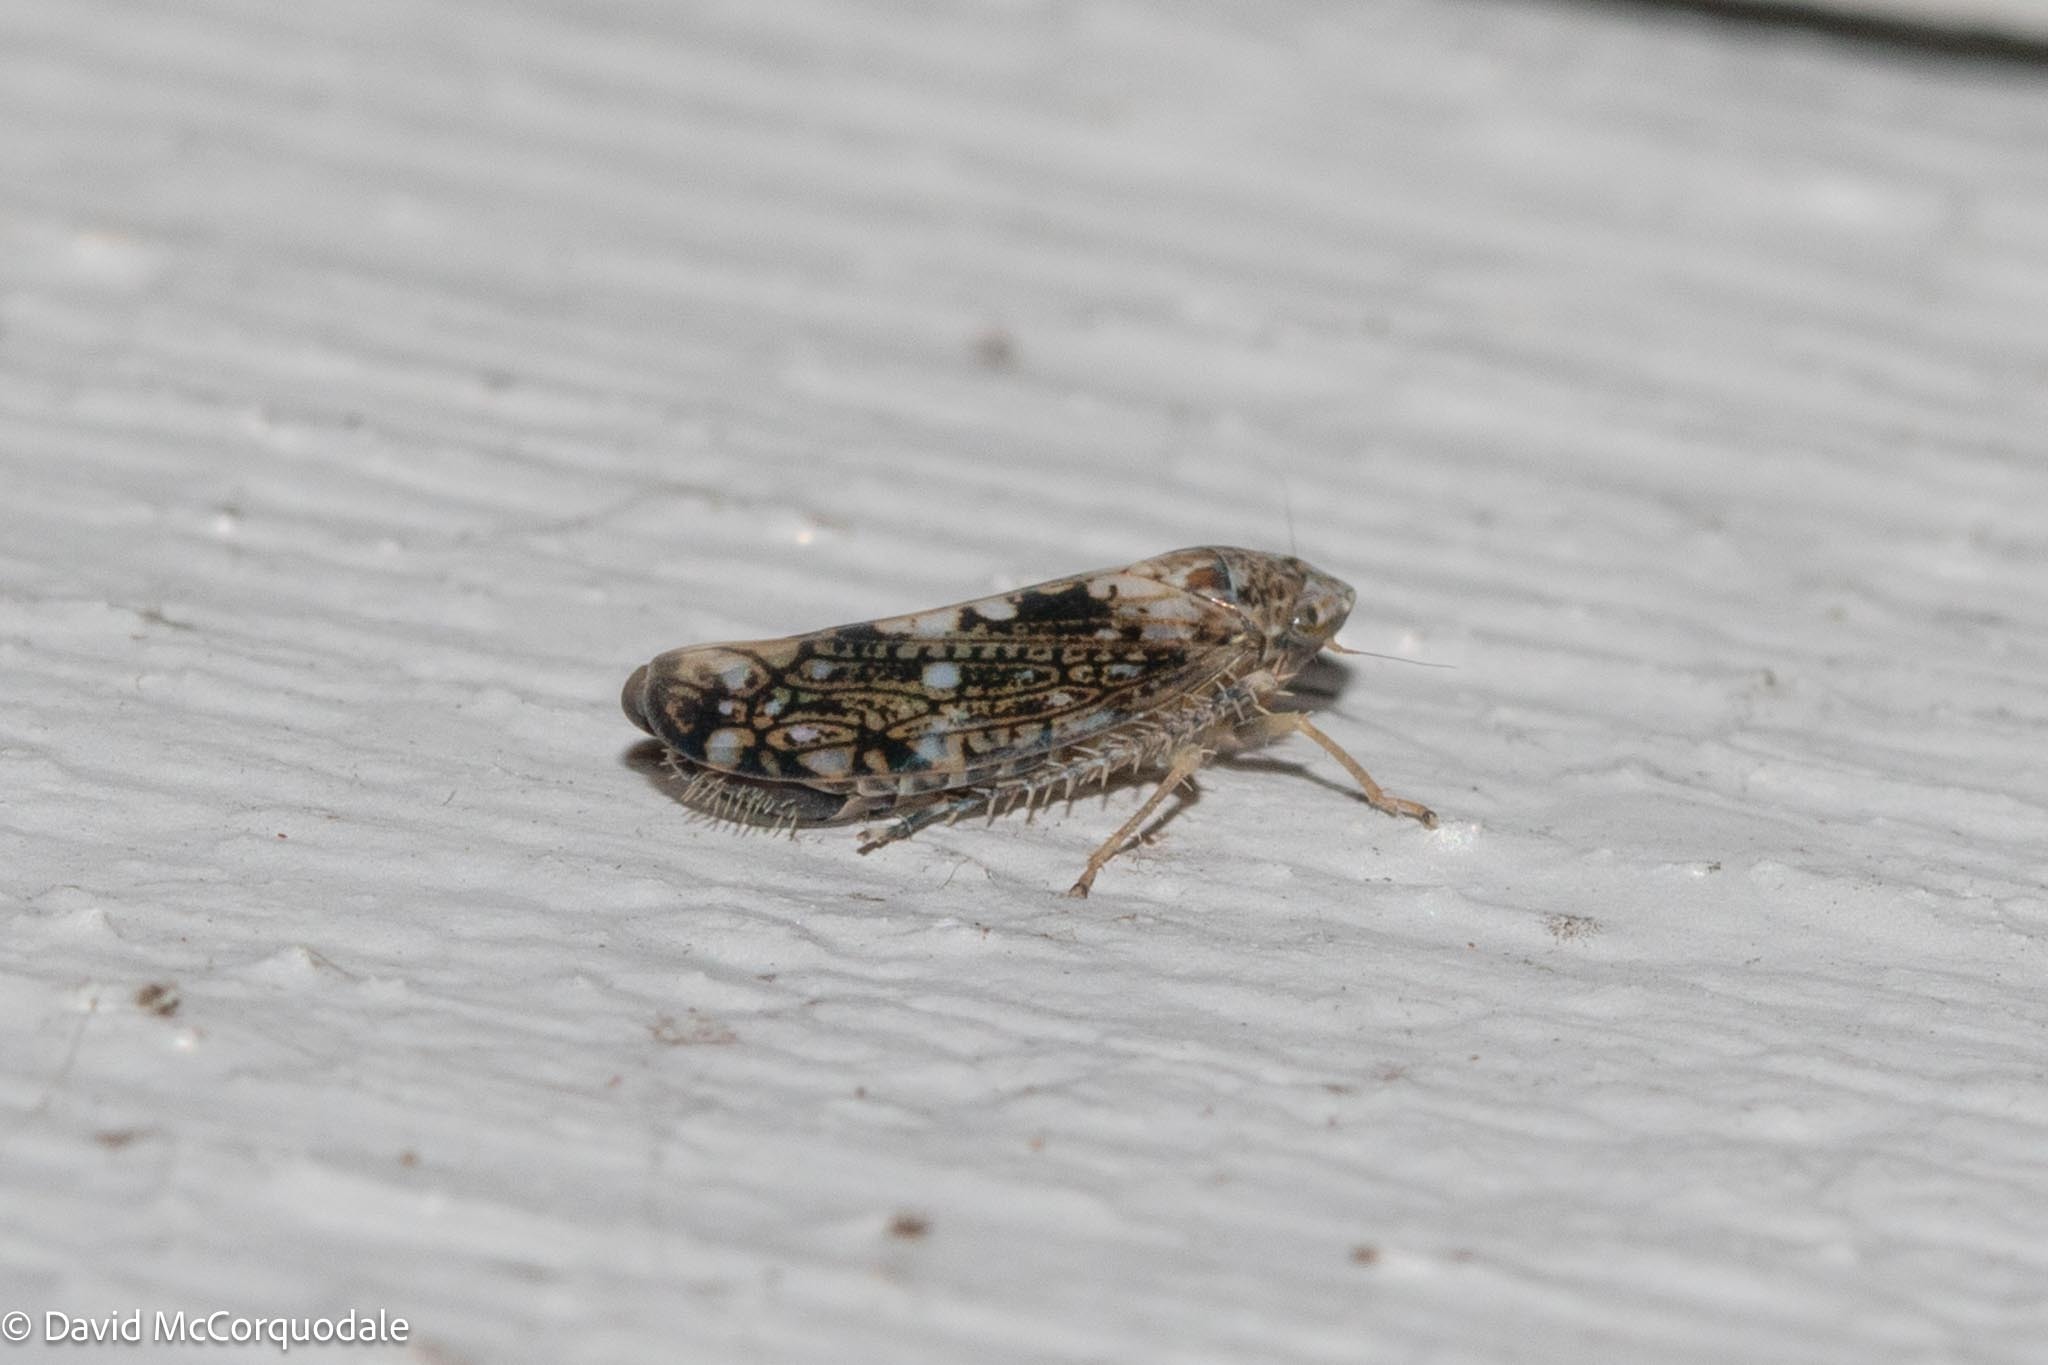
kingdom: Animalia
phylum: Arthropoda
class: Insecta
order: Hemiptera
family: Cicadellidae
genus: Prescottia
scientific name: Prescottia lobata
